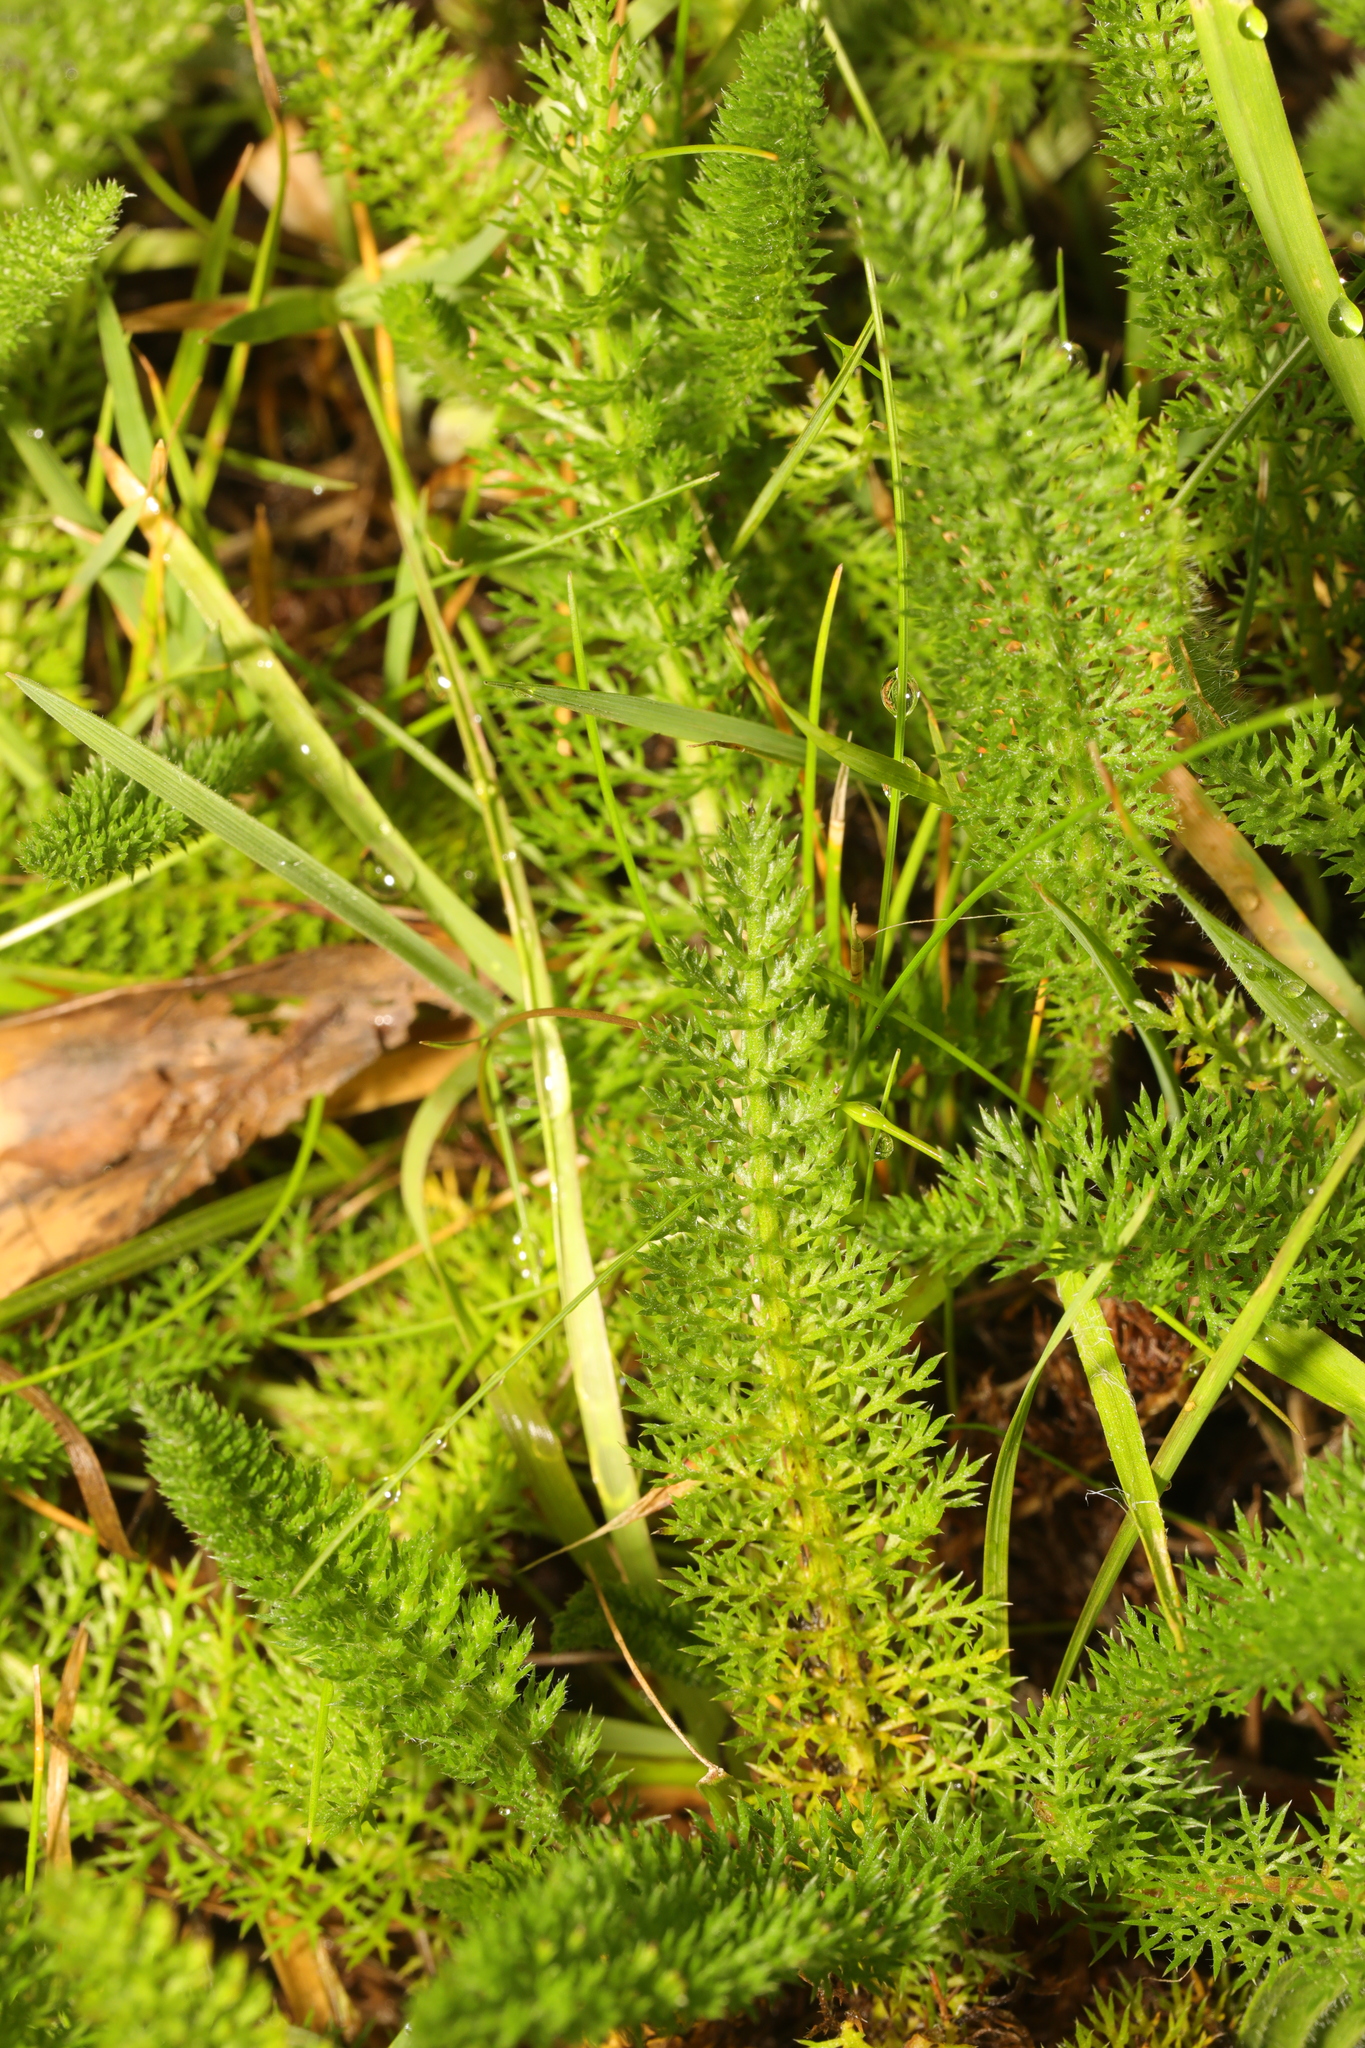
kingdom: Plantae
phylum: Tracheophyta
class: Magnoliopsida
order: Asterales
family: Asteraceae
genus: Achillea
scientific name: Achillea millefolium
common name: Yarrow
